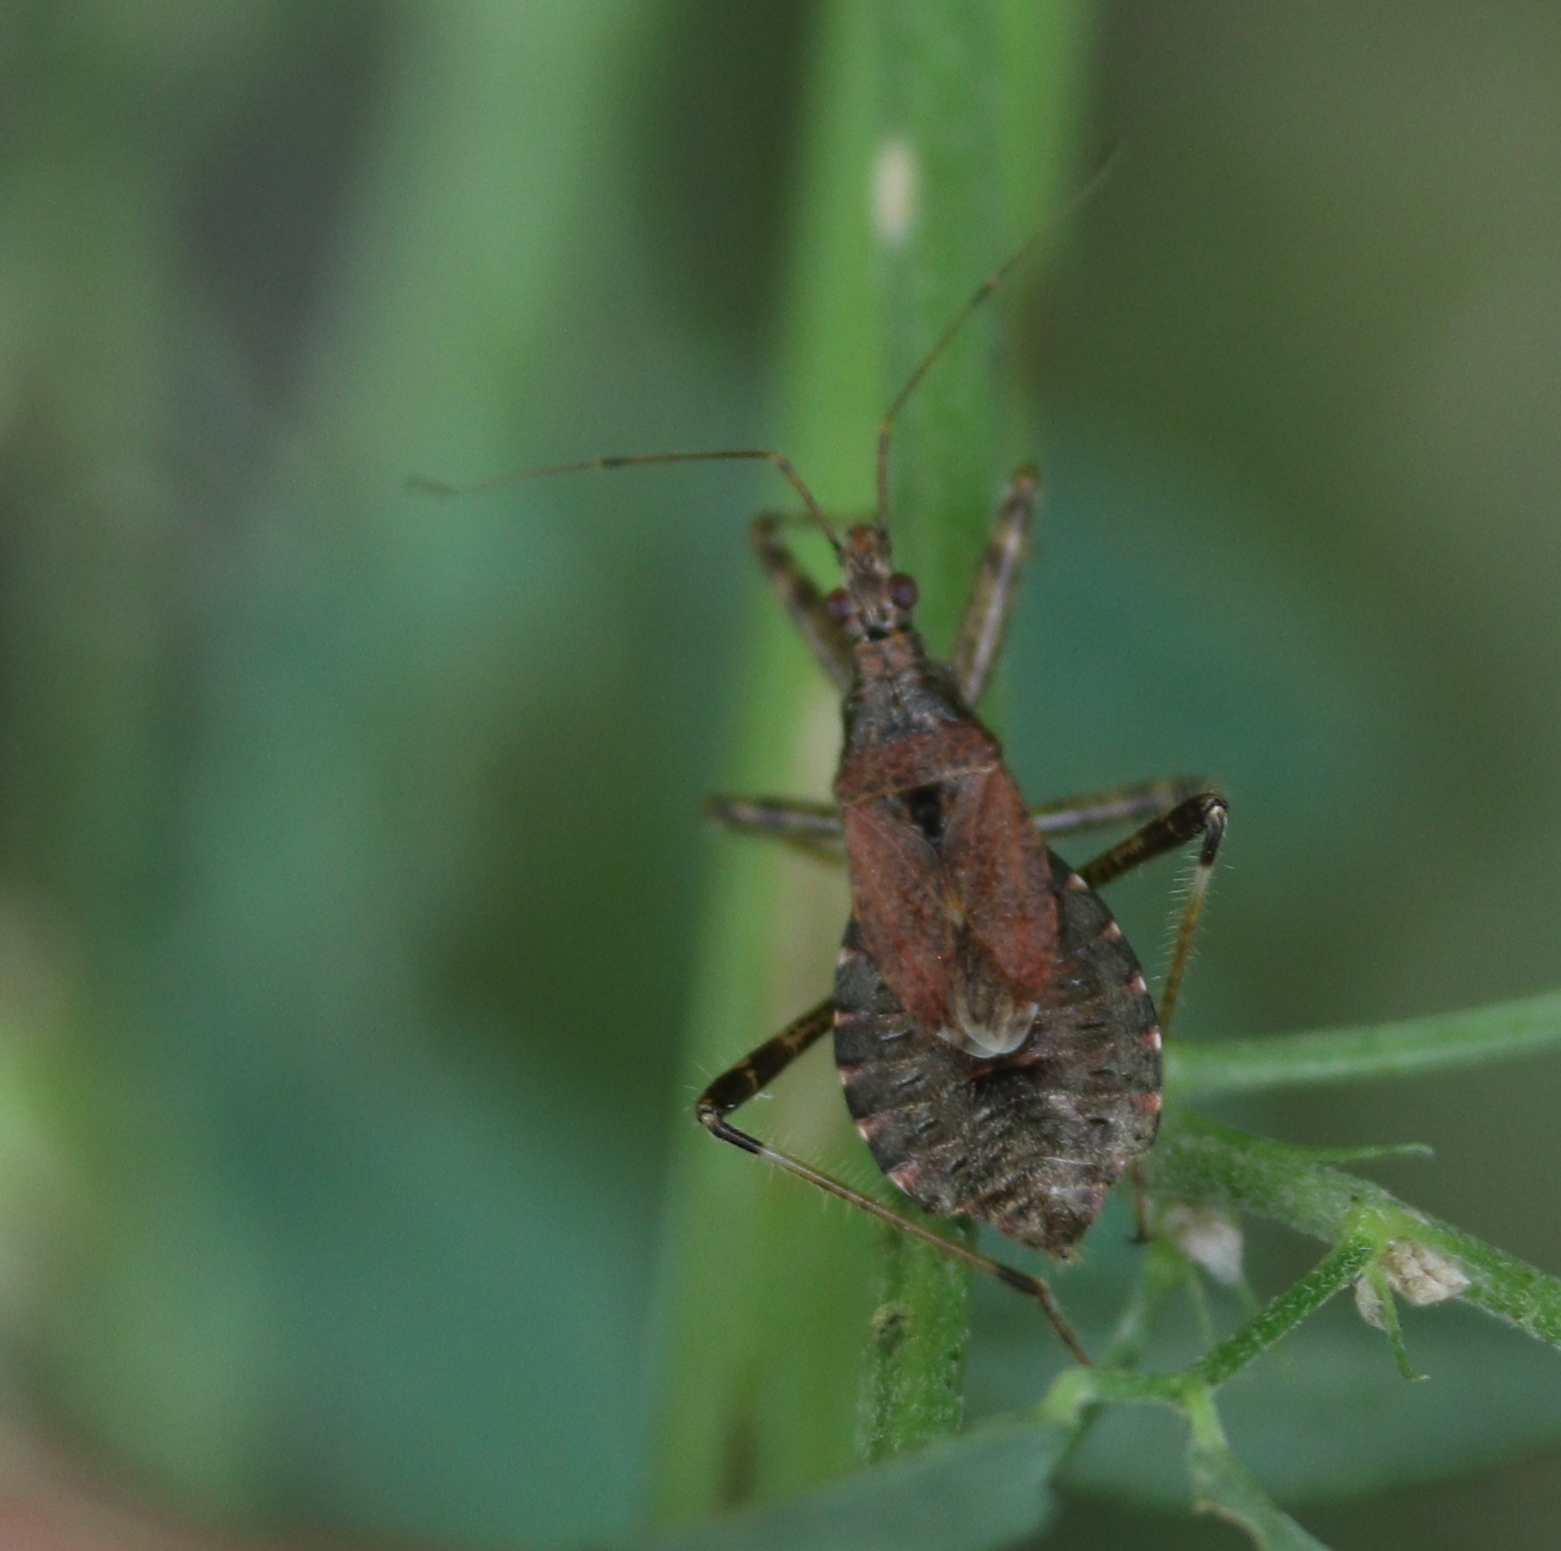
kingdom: Animalia
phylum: Arthropoda
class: Insecta
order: Hemiptera
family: Nabidae
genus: Himacerus
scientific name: Himacerus apterus
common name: Tree damsel bug
